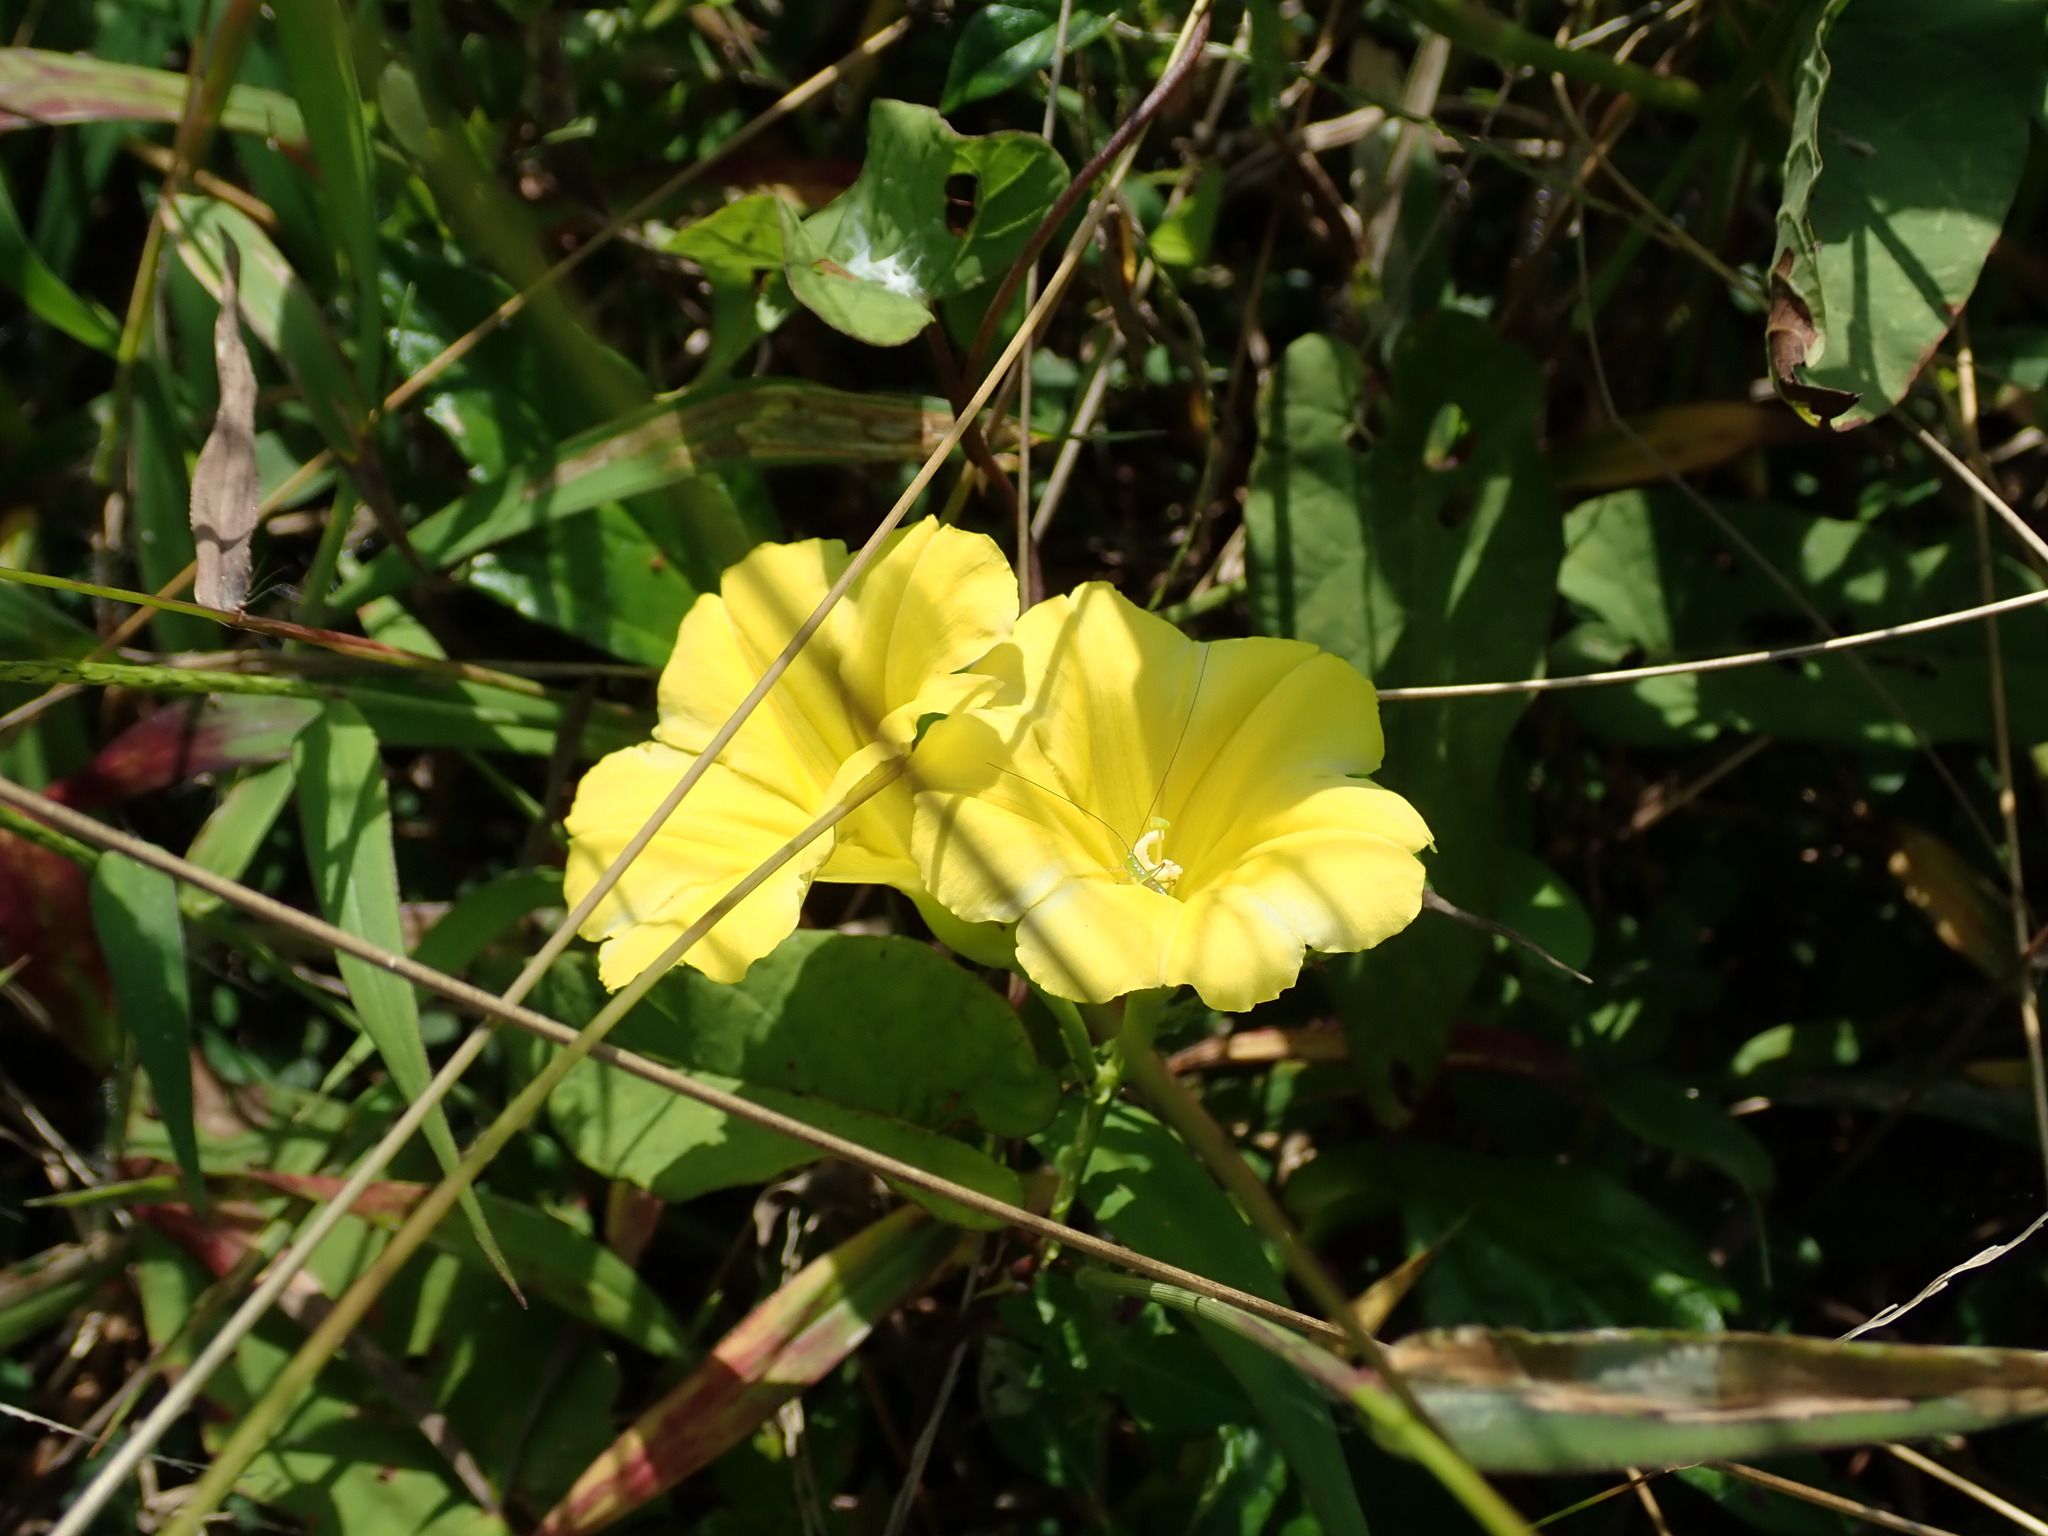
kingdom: Plantae
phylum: Tracheophyta
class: Magnoliopsida
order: Solanales
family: Convolvulaceae
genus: Camonea
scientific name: Camonea umbellata
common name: Hogvine
